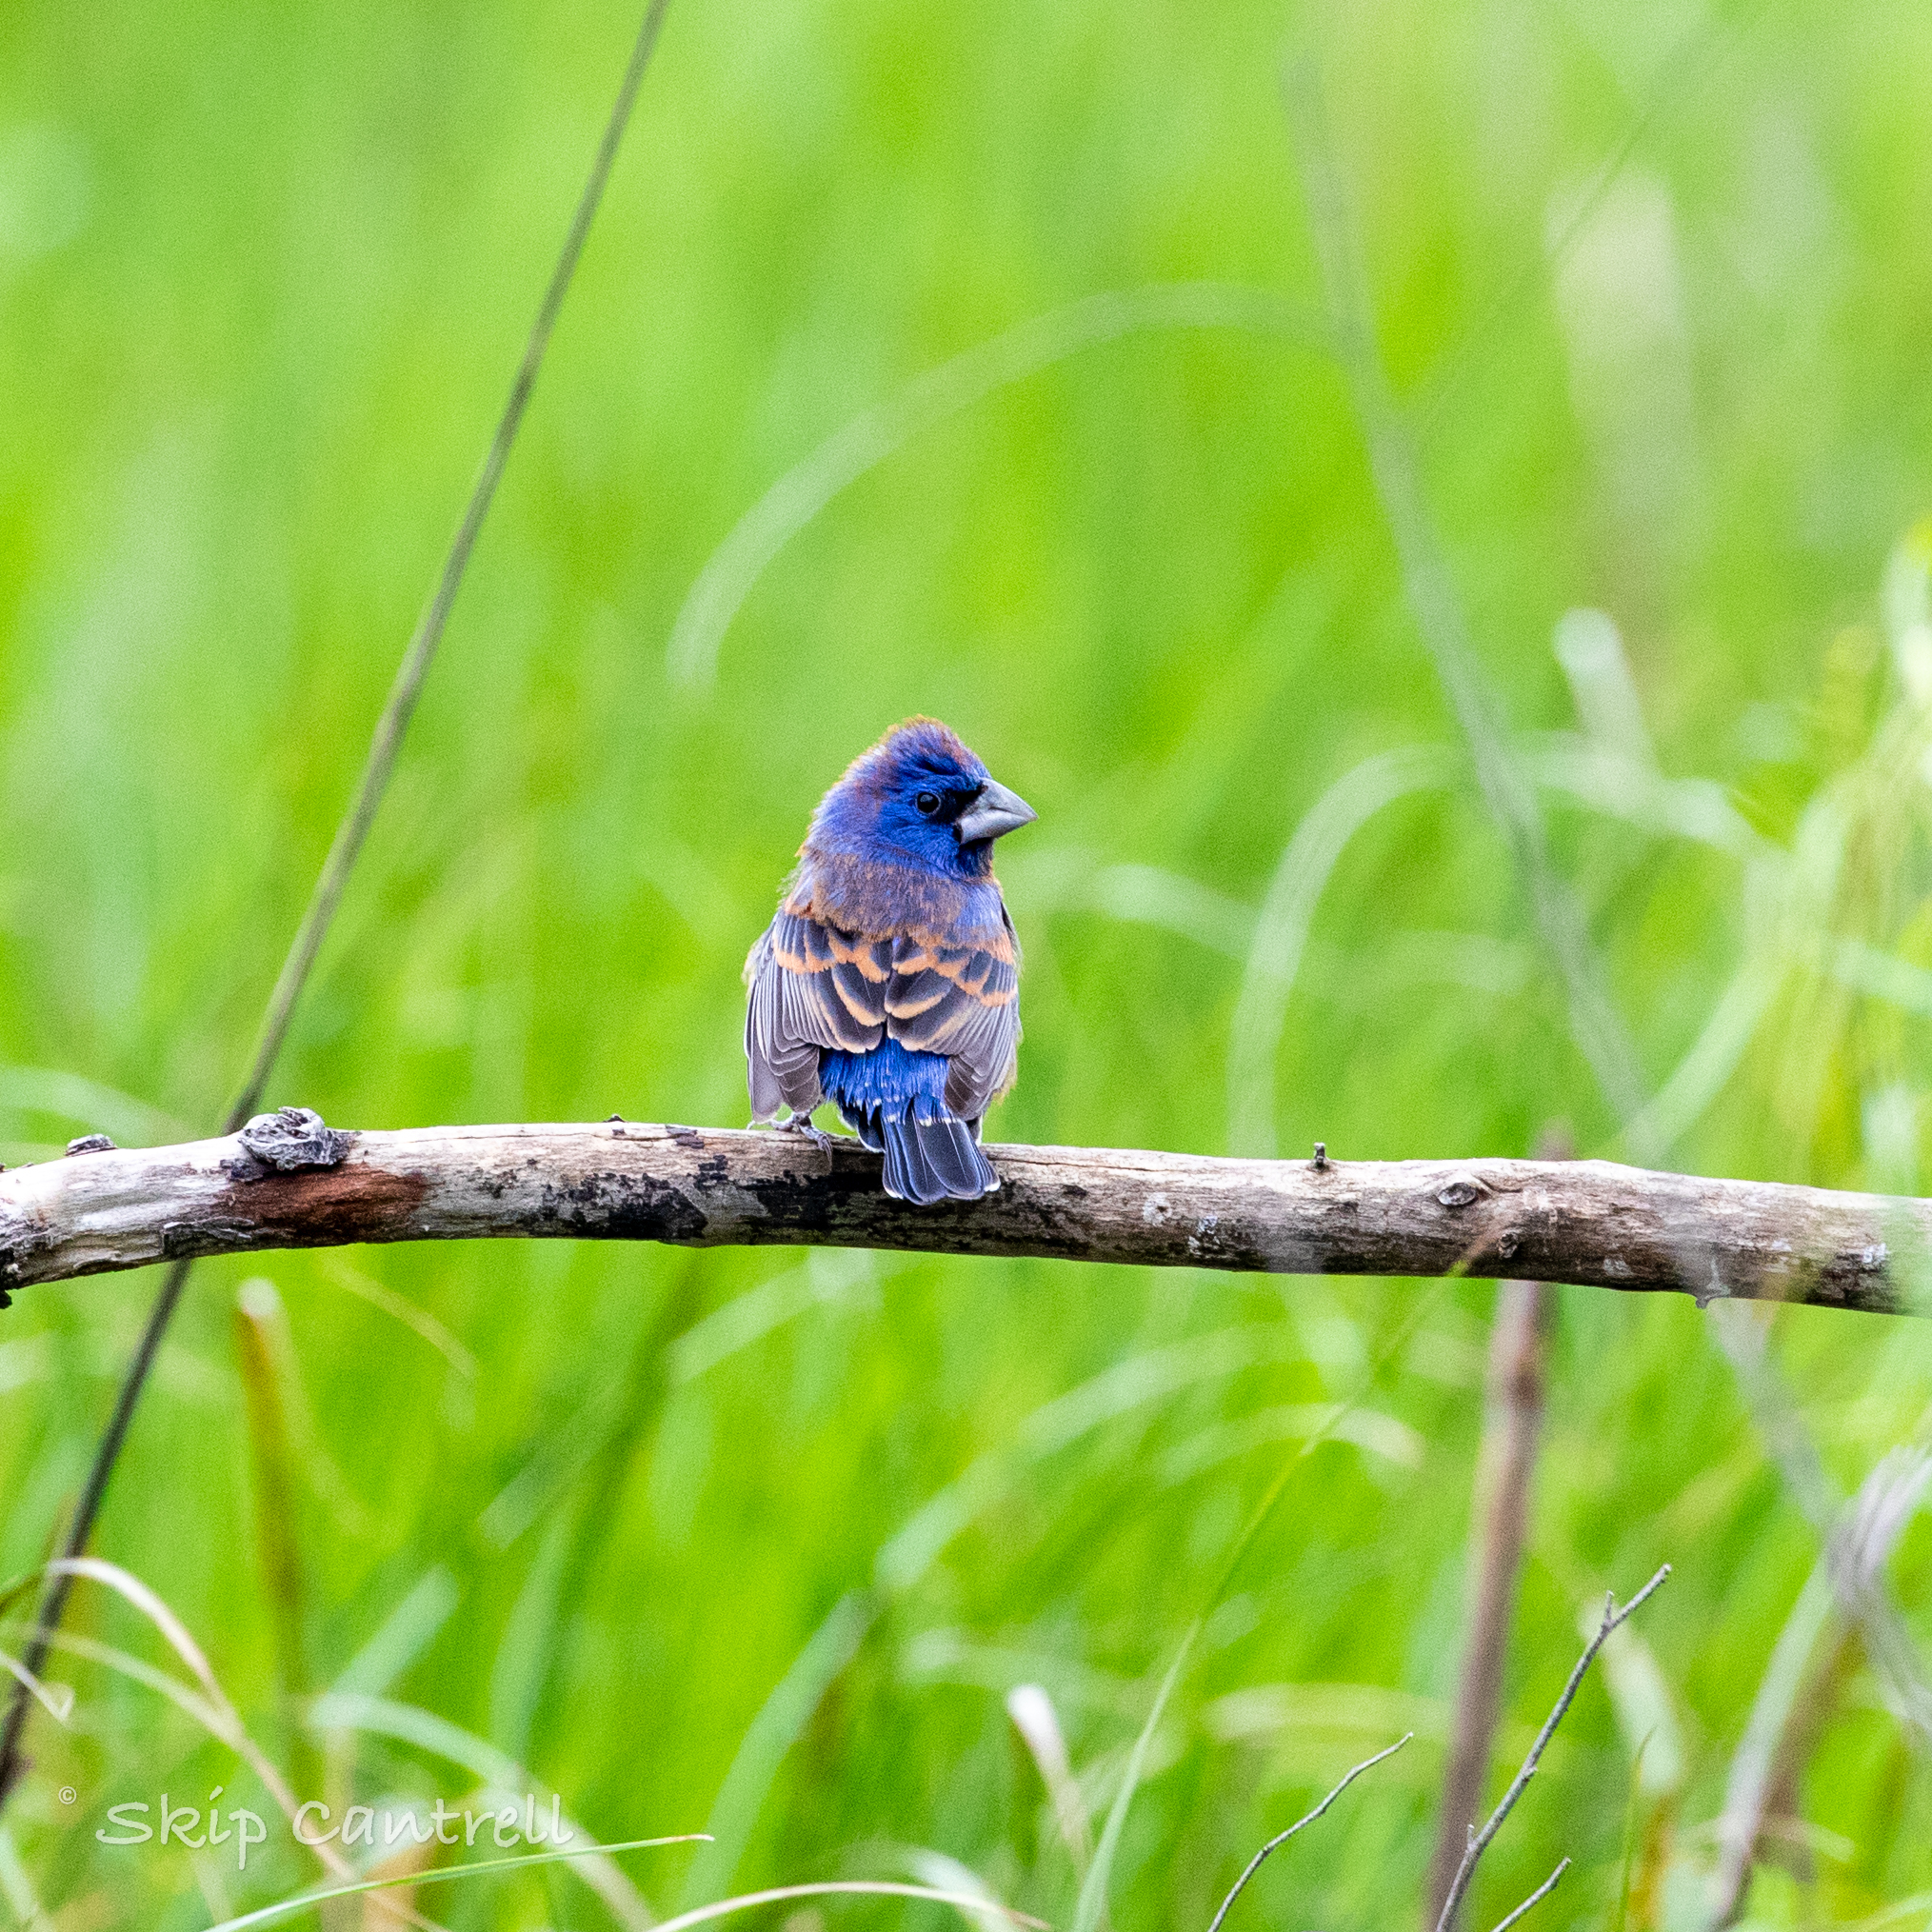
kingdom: Animalia
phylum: Chordata
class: Aves
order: Passeriformes
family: Cardinalidae
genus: Passerina
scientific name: Passerina caerulea
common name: Blue grosbeak
